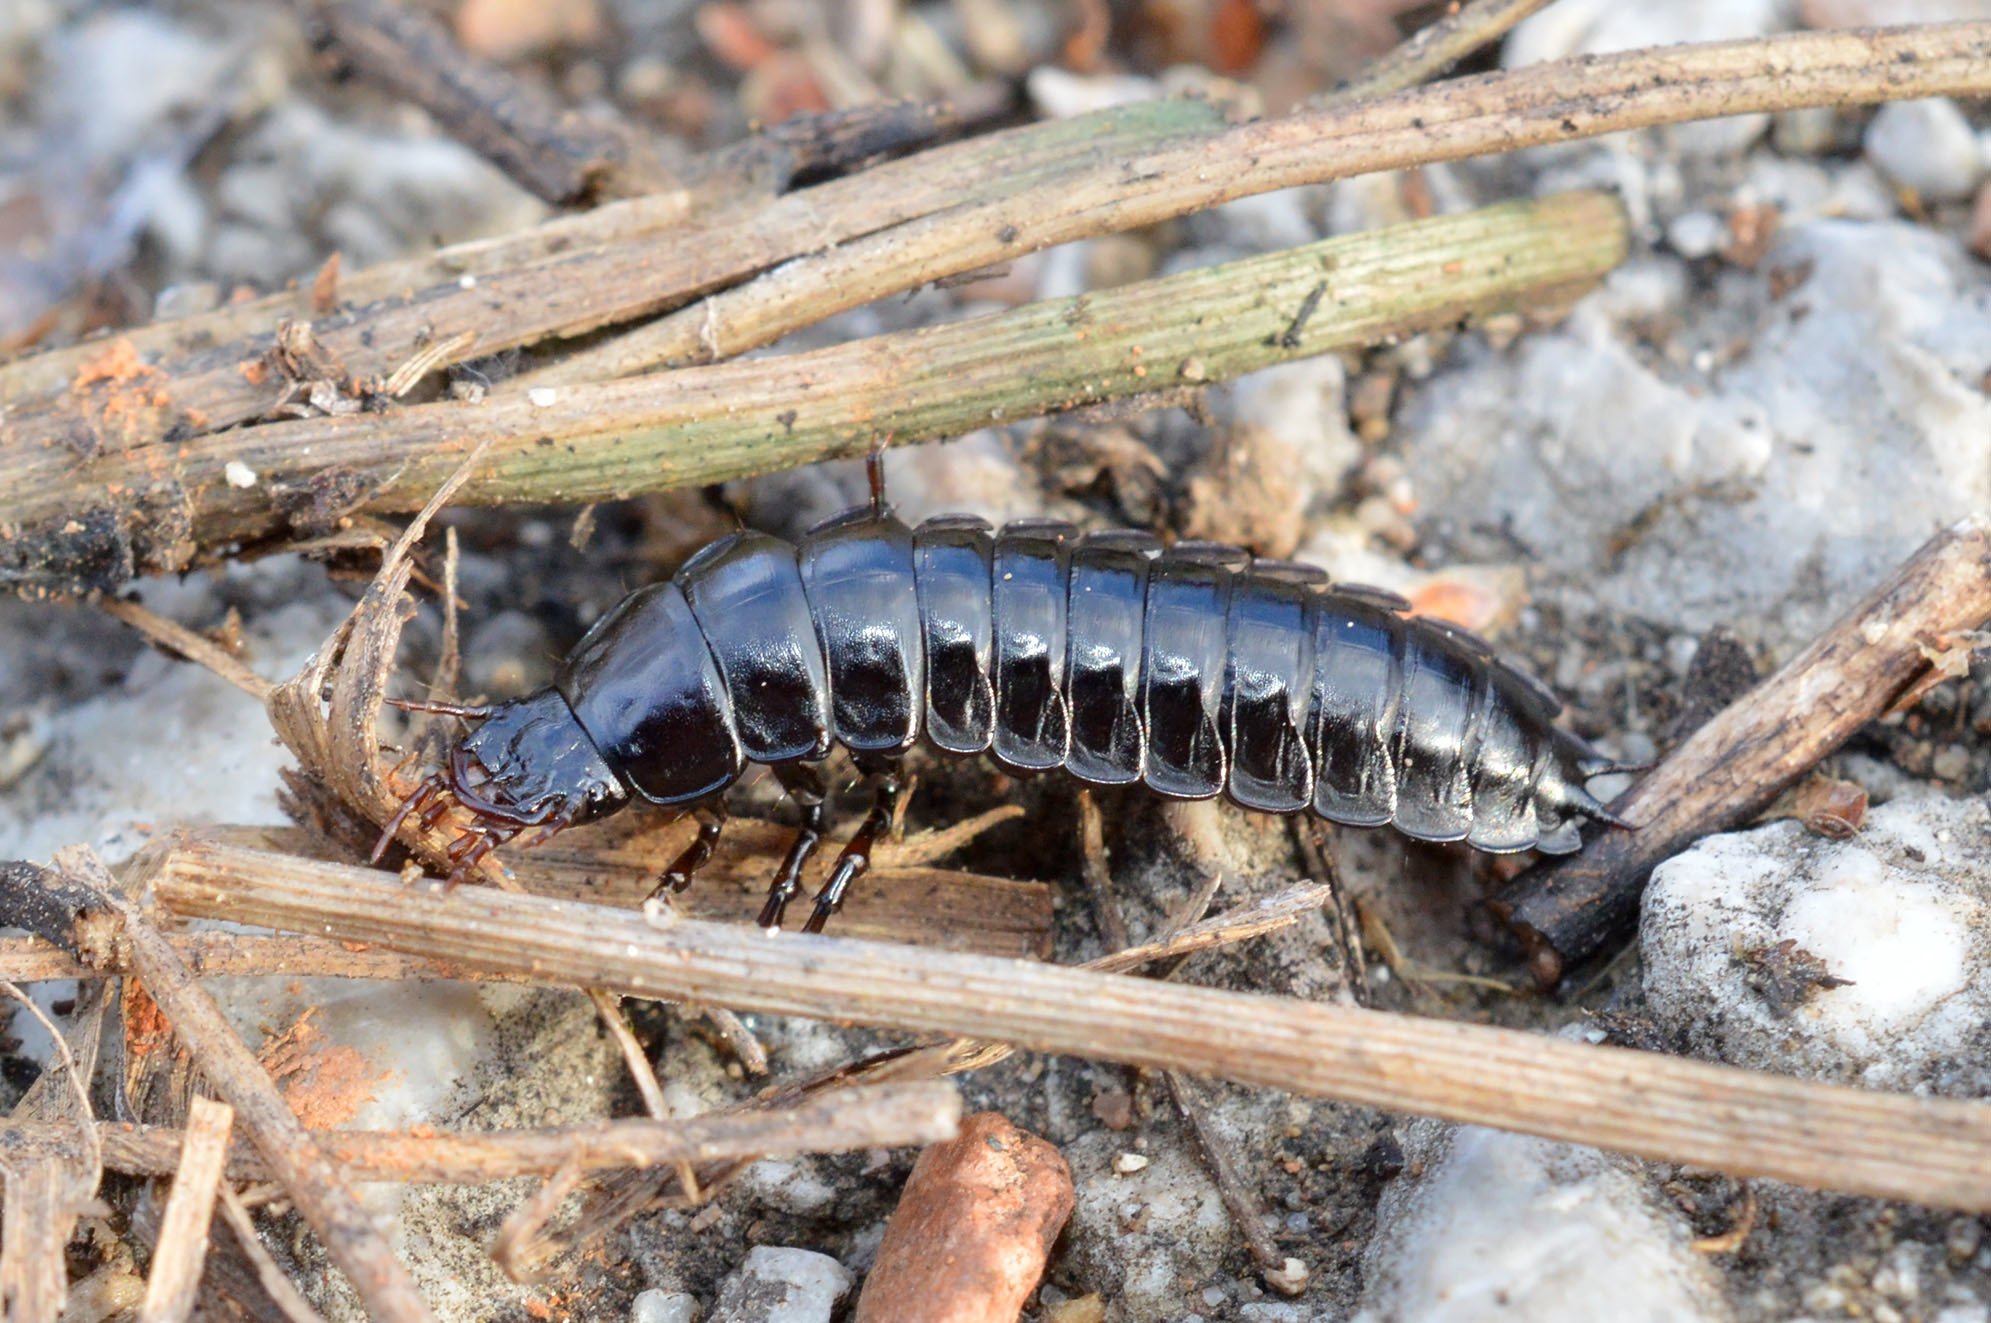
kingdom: Animalia
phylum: Arthropoda
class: Insecta
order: Coleoptera
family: Carabidae
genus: Carabus
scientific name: Carabus
